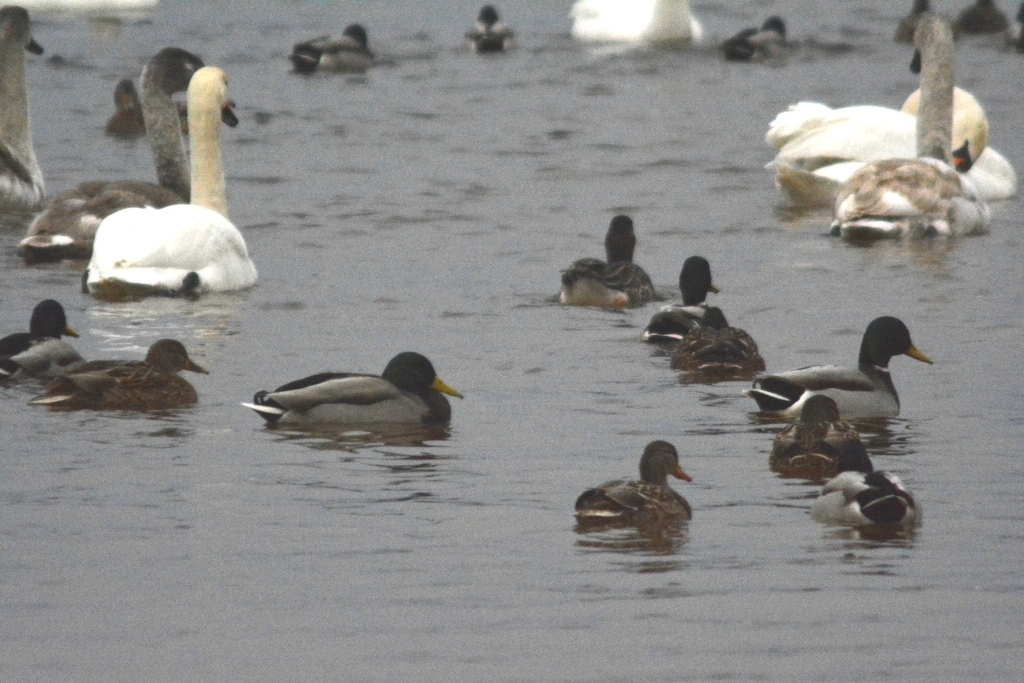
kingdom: Animalia
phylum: Chordata
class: Aves
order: Anseriformes
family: Anatidae
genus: Anas
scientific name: Anas platyrhynchos
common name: Mallard
